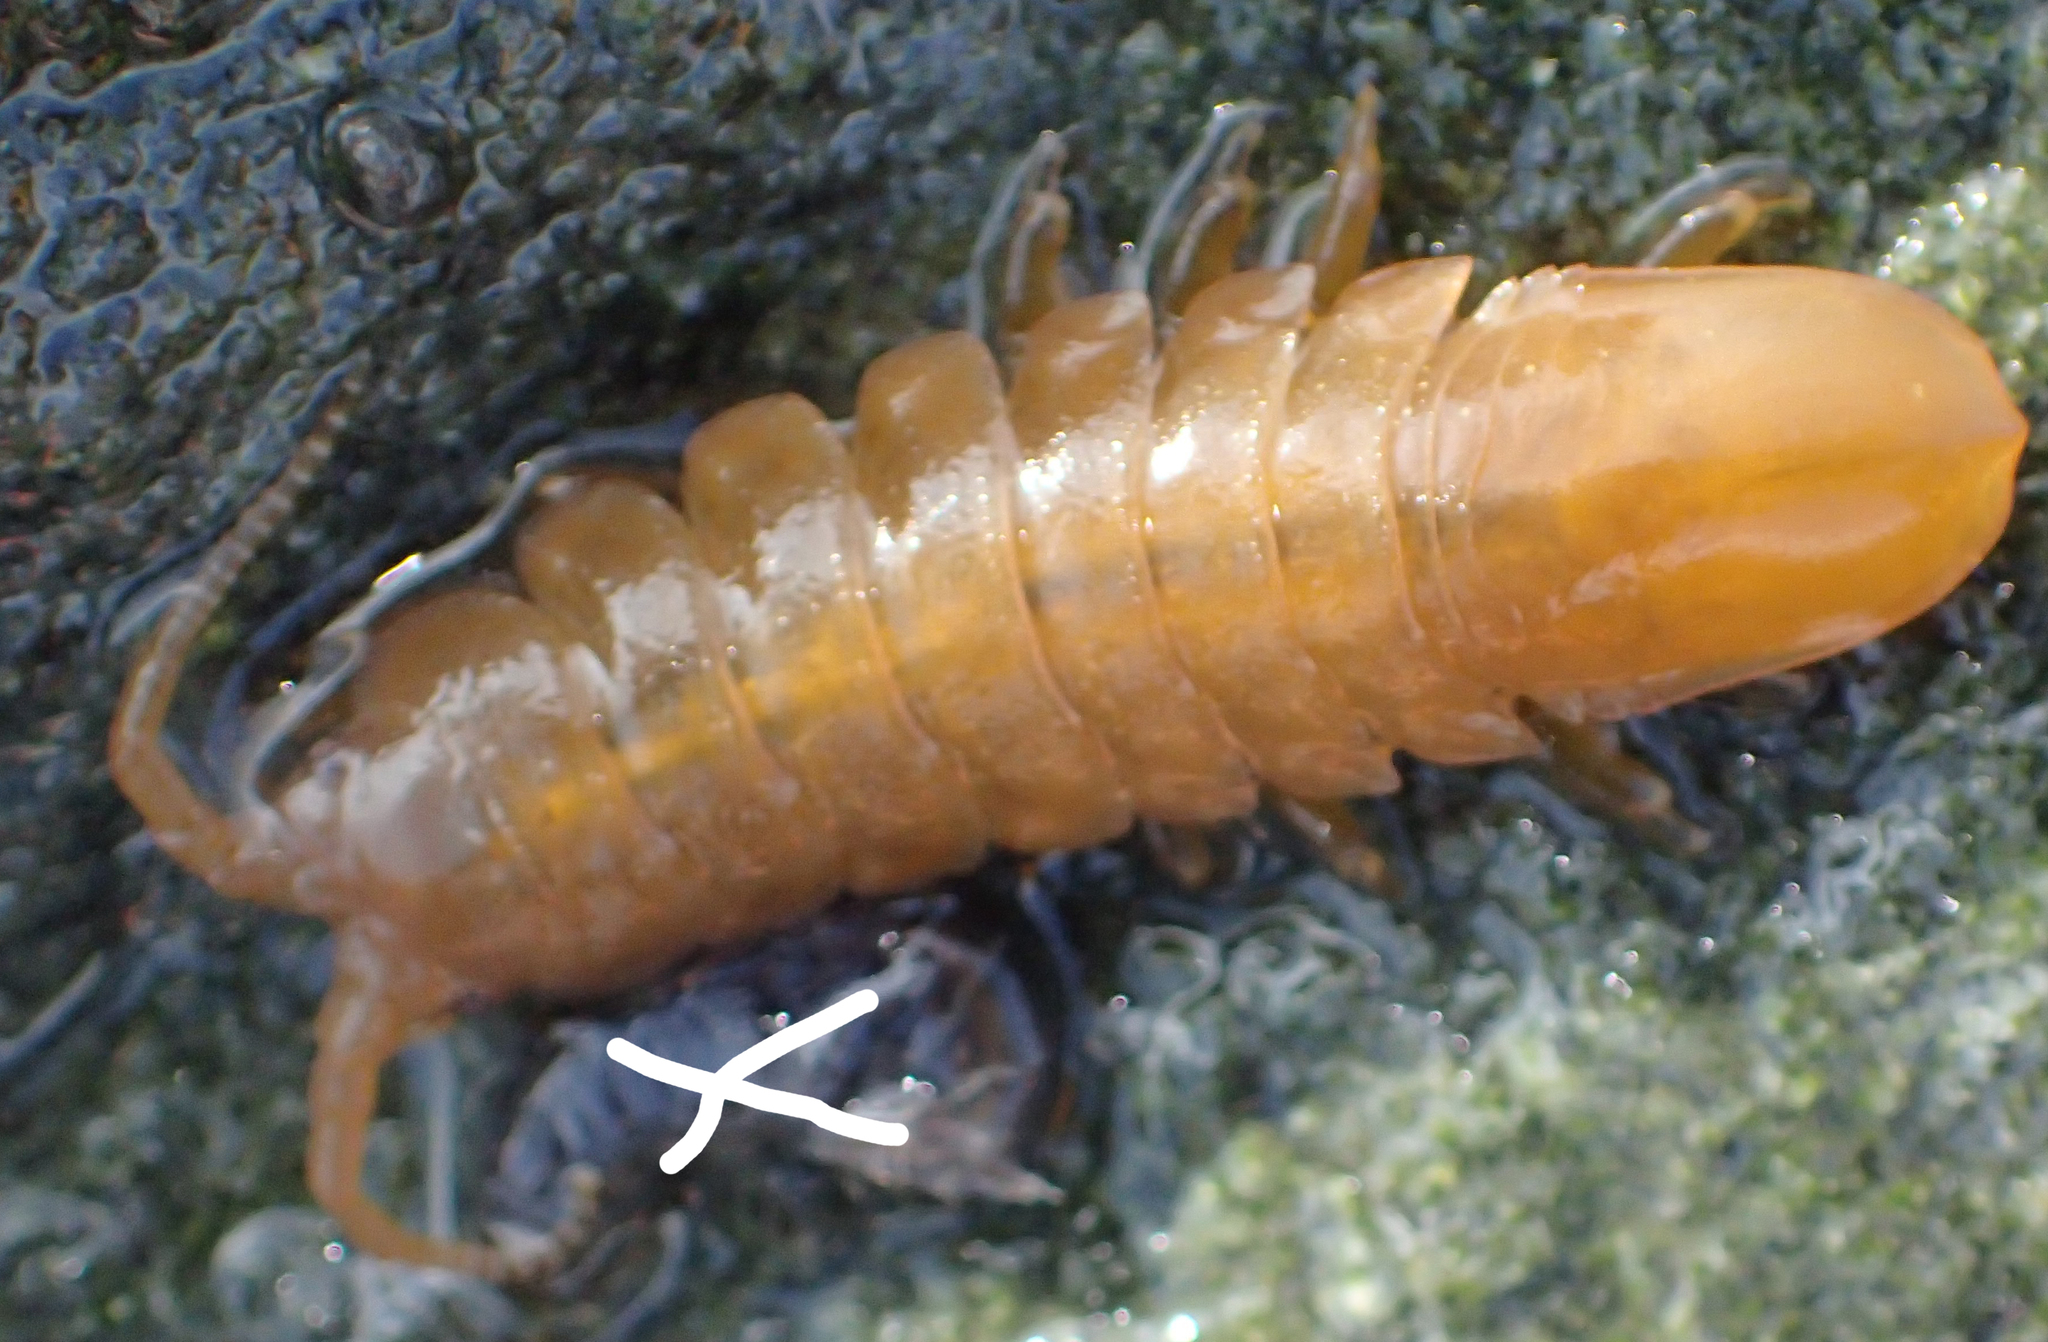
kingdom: Animalia
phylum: Arthropoda
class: Malacostraca
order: Isopoda
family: Idoteidae
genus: Pentidotea
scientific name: Pentidotea wosnesenskii
